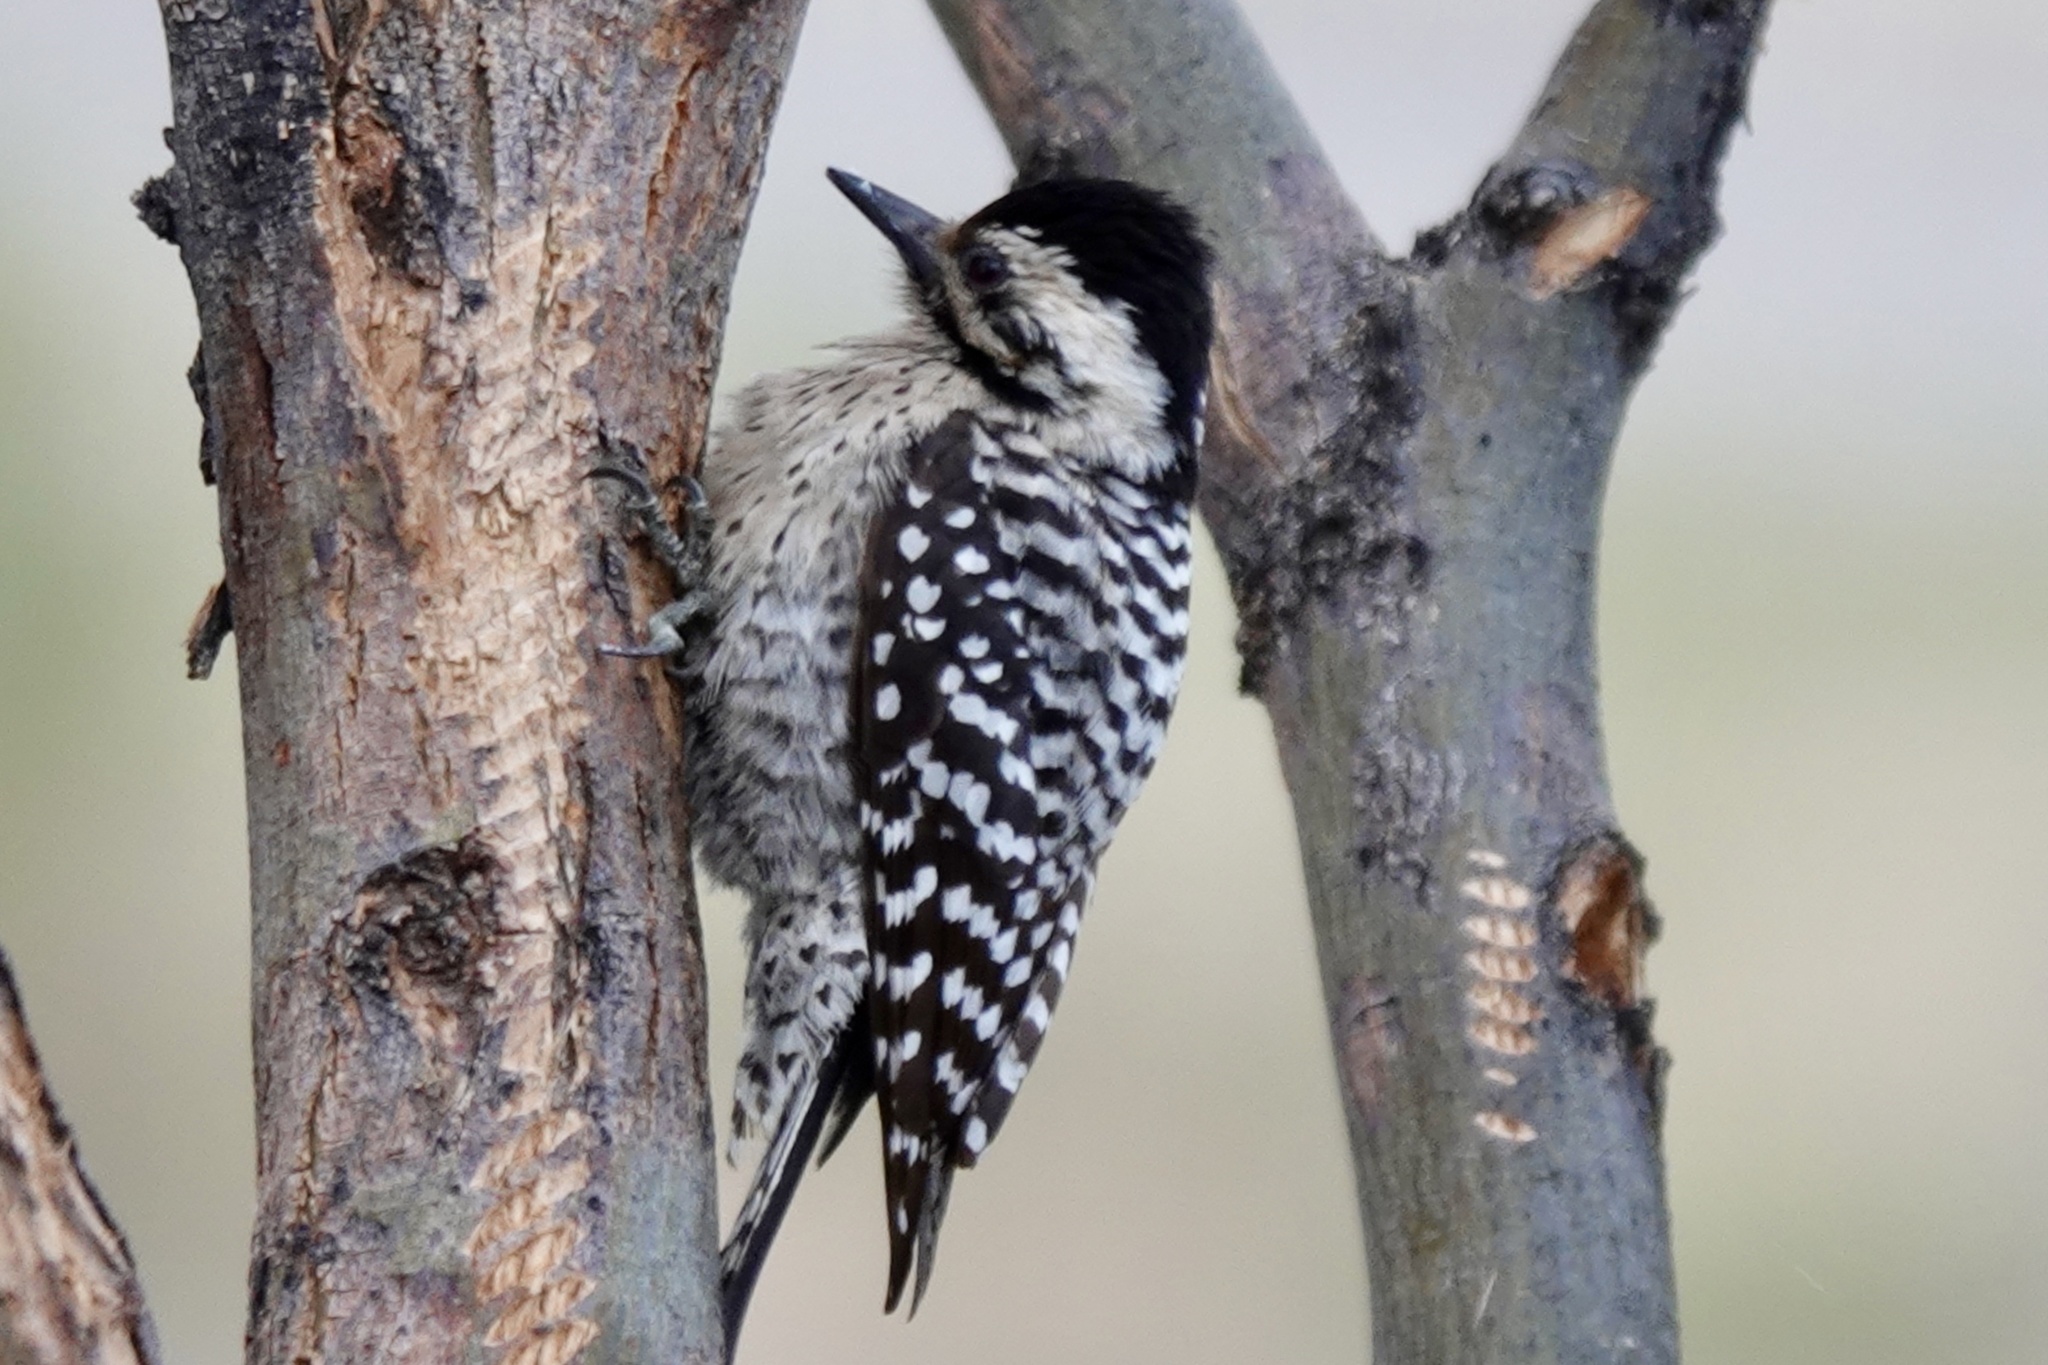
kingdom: Animalia
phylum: Chordata
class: Aves
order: Piciformes
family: Picidae
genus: Dryobates
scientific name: Dryobates scalaris
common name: Ladder-backed woodpecker
